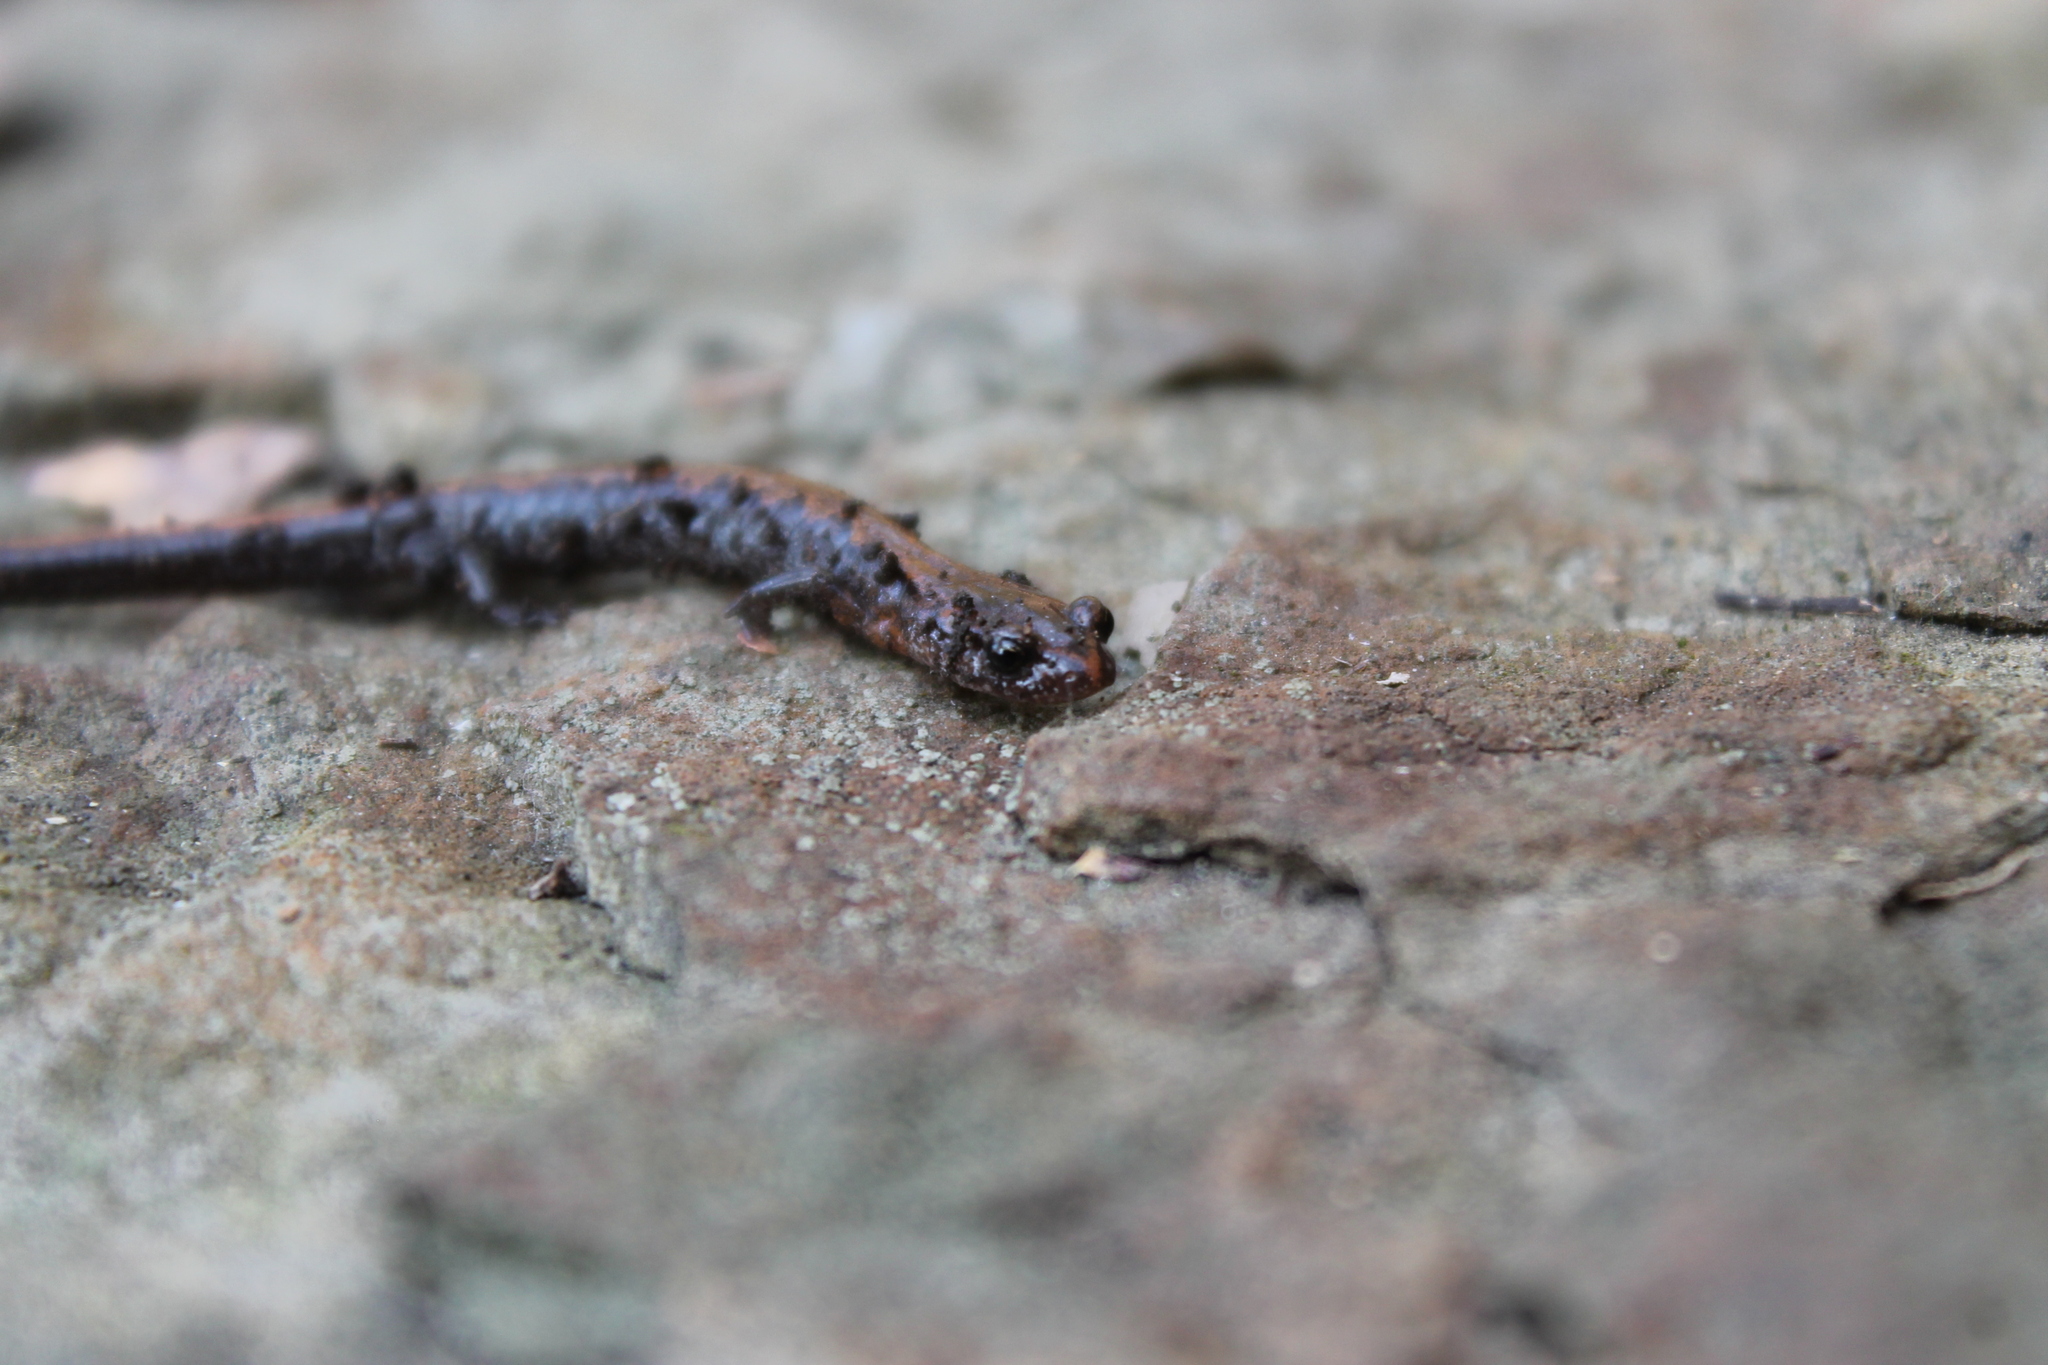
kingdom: Animalia
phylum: Chordata
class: Amphibia
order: Caudata
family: Plethodontidae
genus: Plethodon
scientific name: Plethodon dorsalis
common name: Northern zigzag salamander
